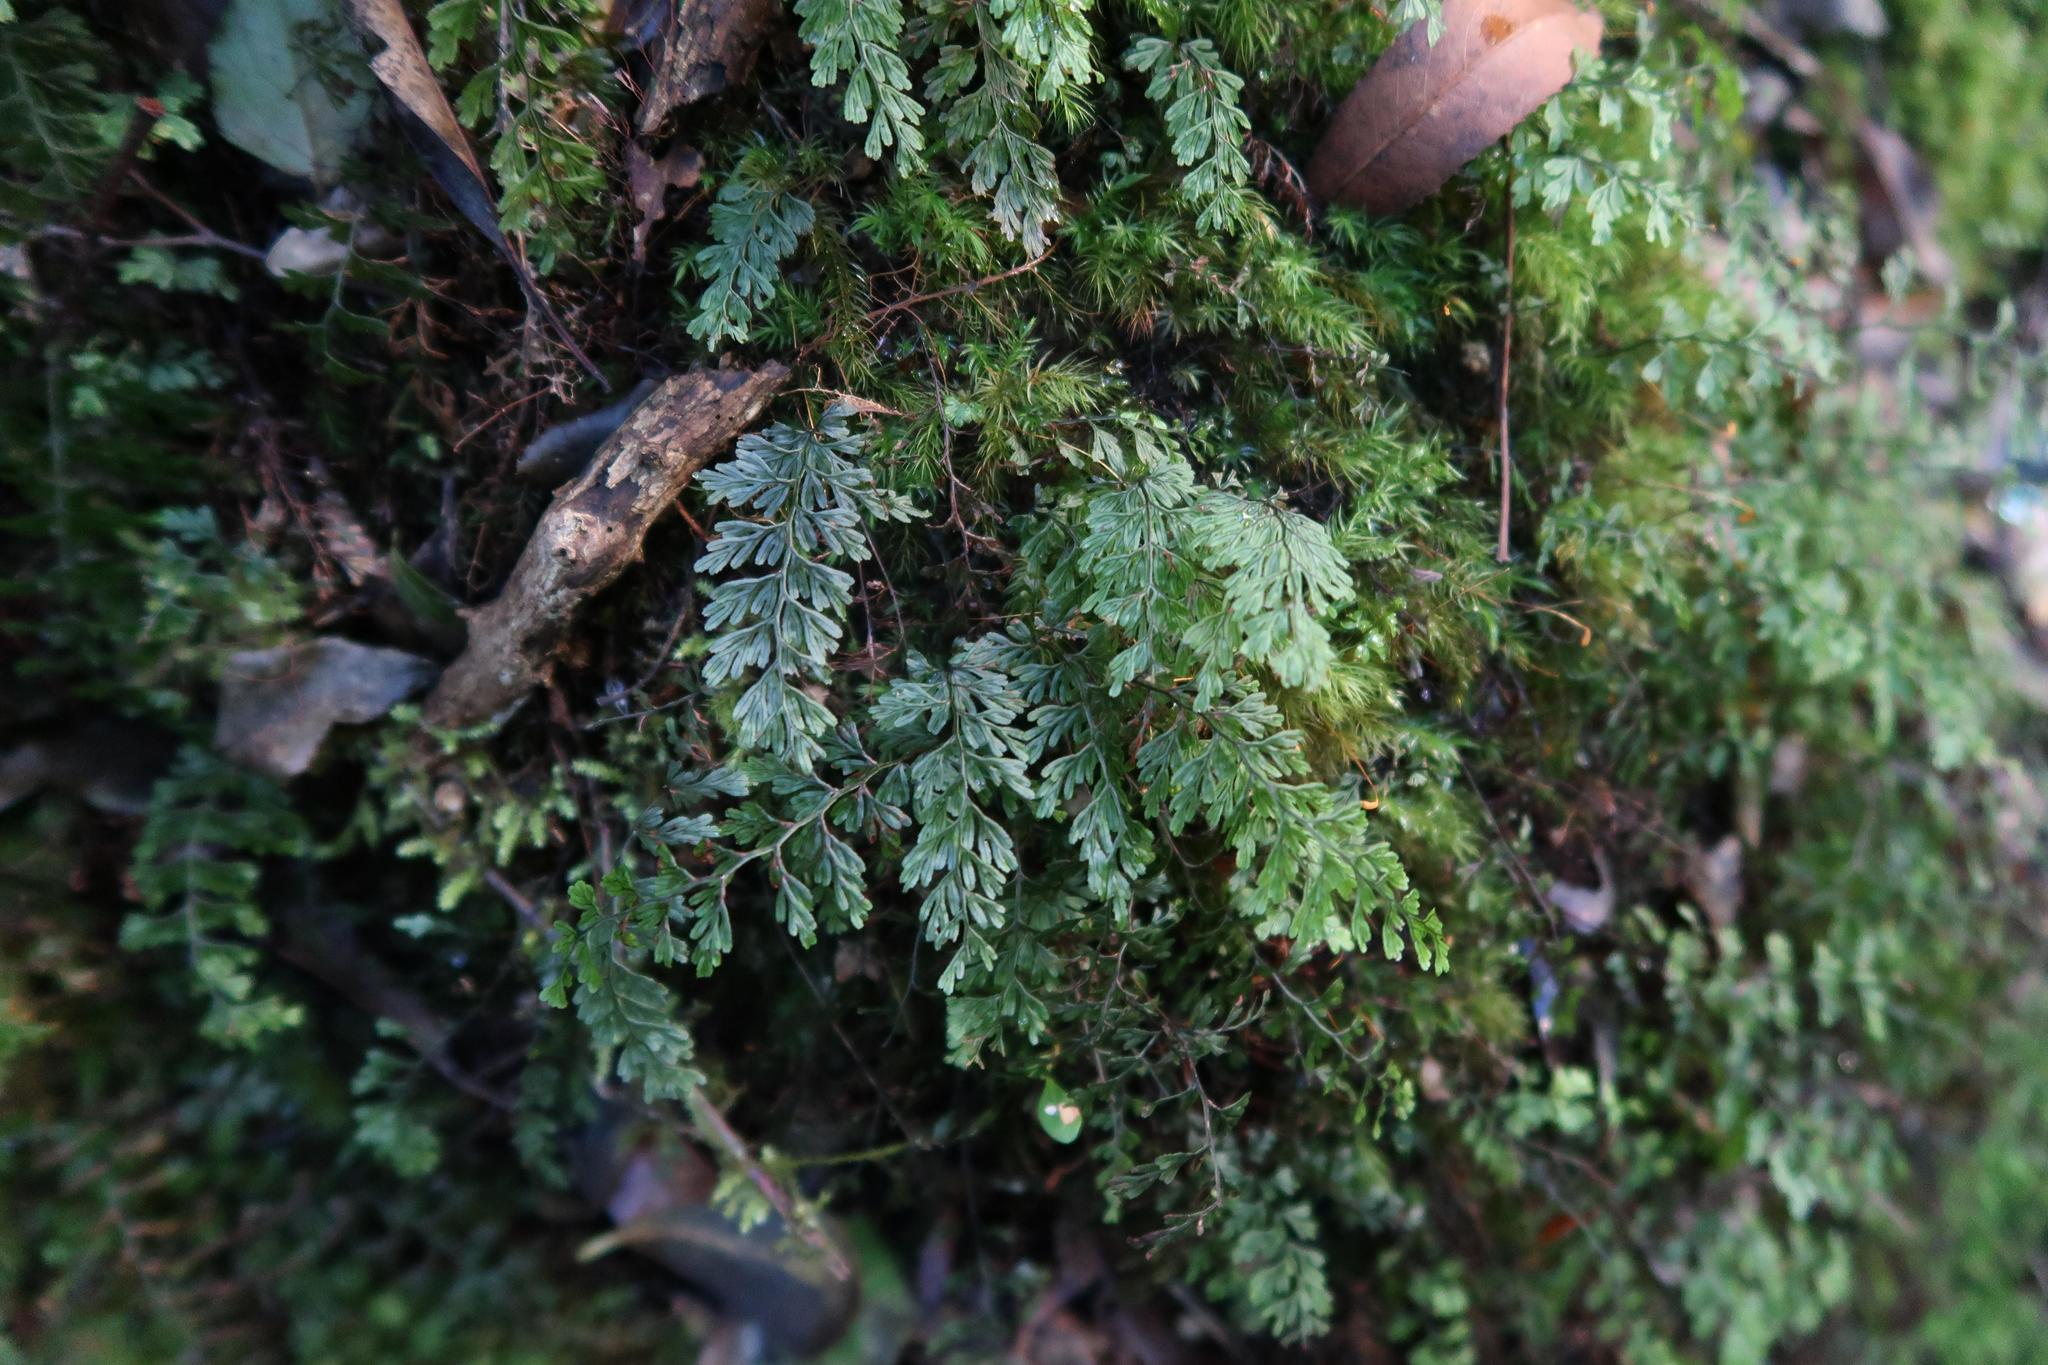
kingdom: Plantae
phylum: Tracheophyta
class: Polypodiopsida
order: Hymenophyllales
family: Hymenophyllaceae
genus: Hymenophyllum
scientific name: Hymenophyllum tunbrigense
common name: Tunbridge filmy fern
